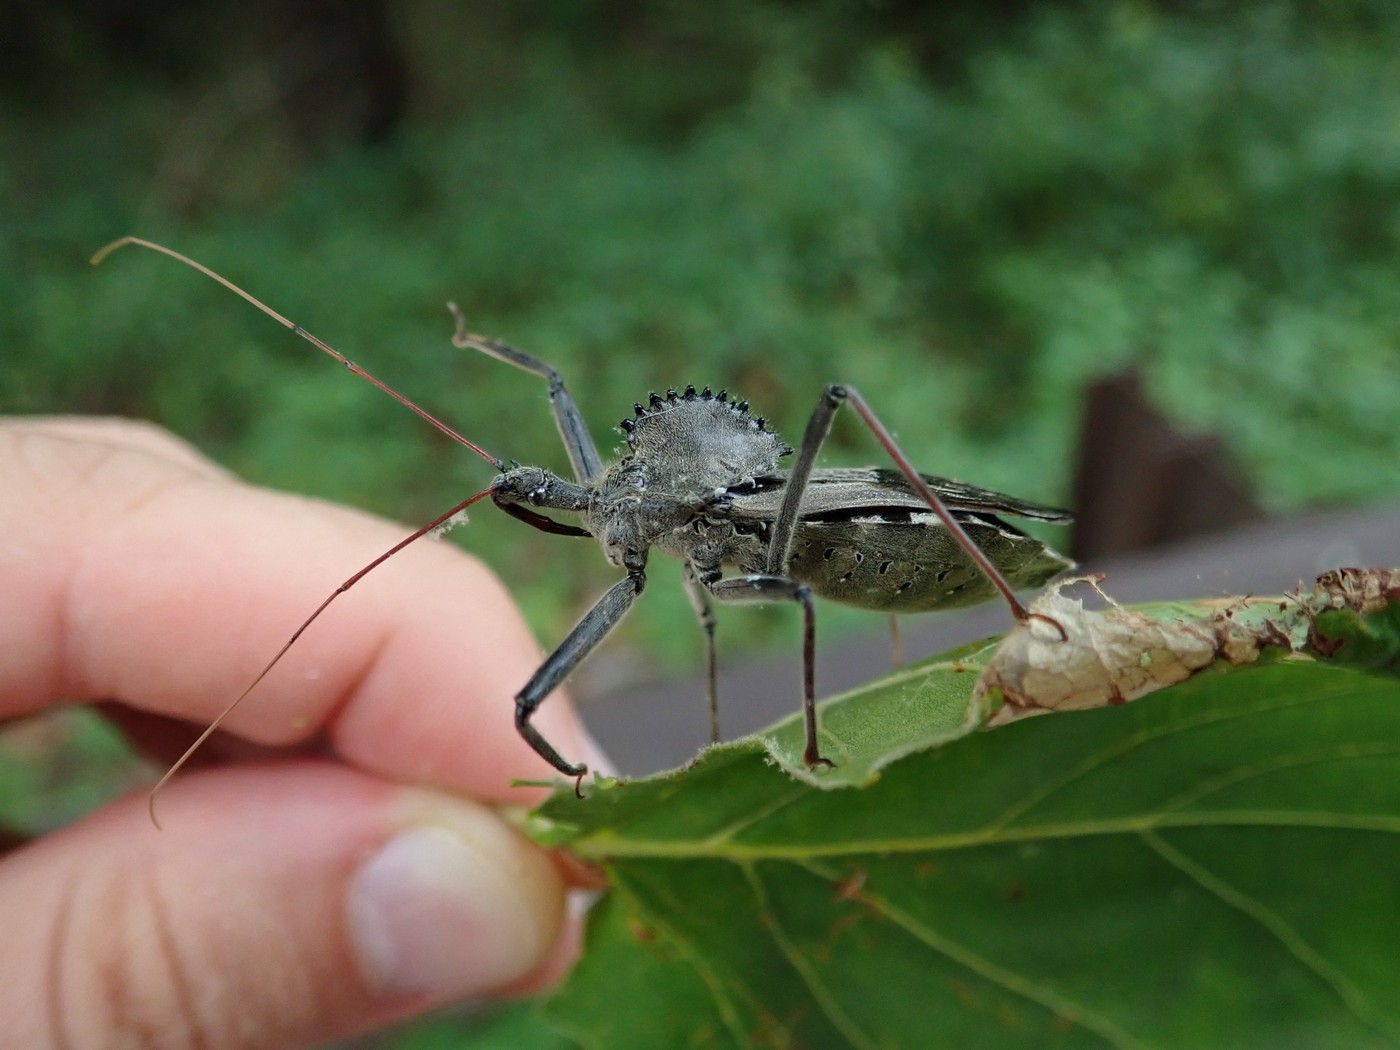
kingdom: Animalia
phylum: Arthropoda
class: Insecta
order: Hemiptera
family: Reduviidae
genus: Arilus
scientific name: Arilus cristatus
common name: North american wheel bug
